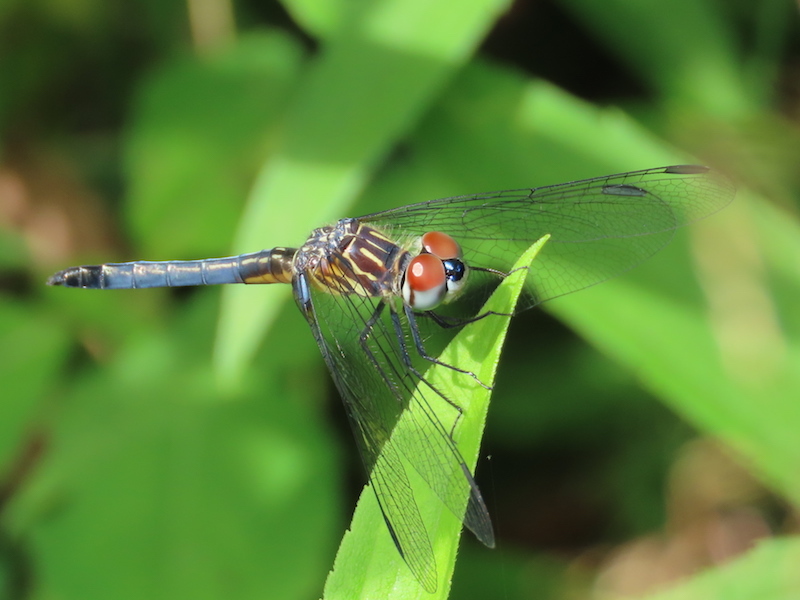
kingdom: Animalia
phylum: Arthropoda
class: Insecta
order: Odonata
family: Libellulidae
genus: Pachydiplax
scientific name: Pachydiplax longipennis
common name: Blue dasher
